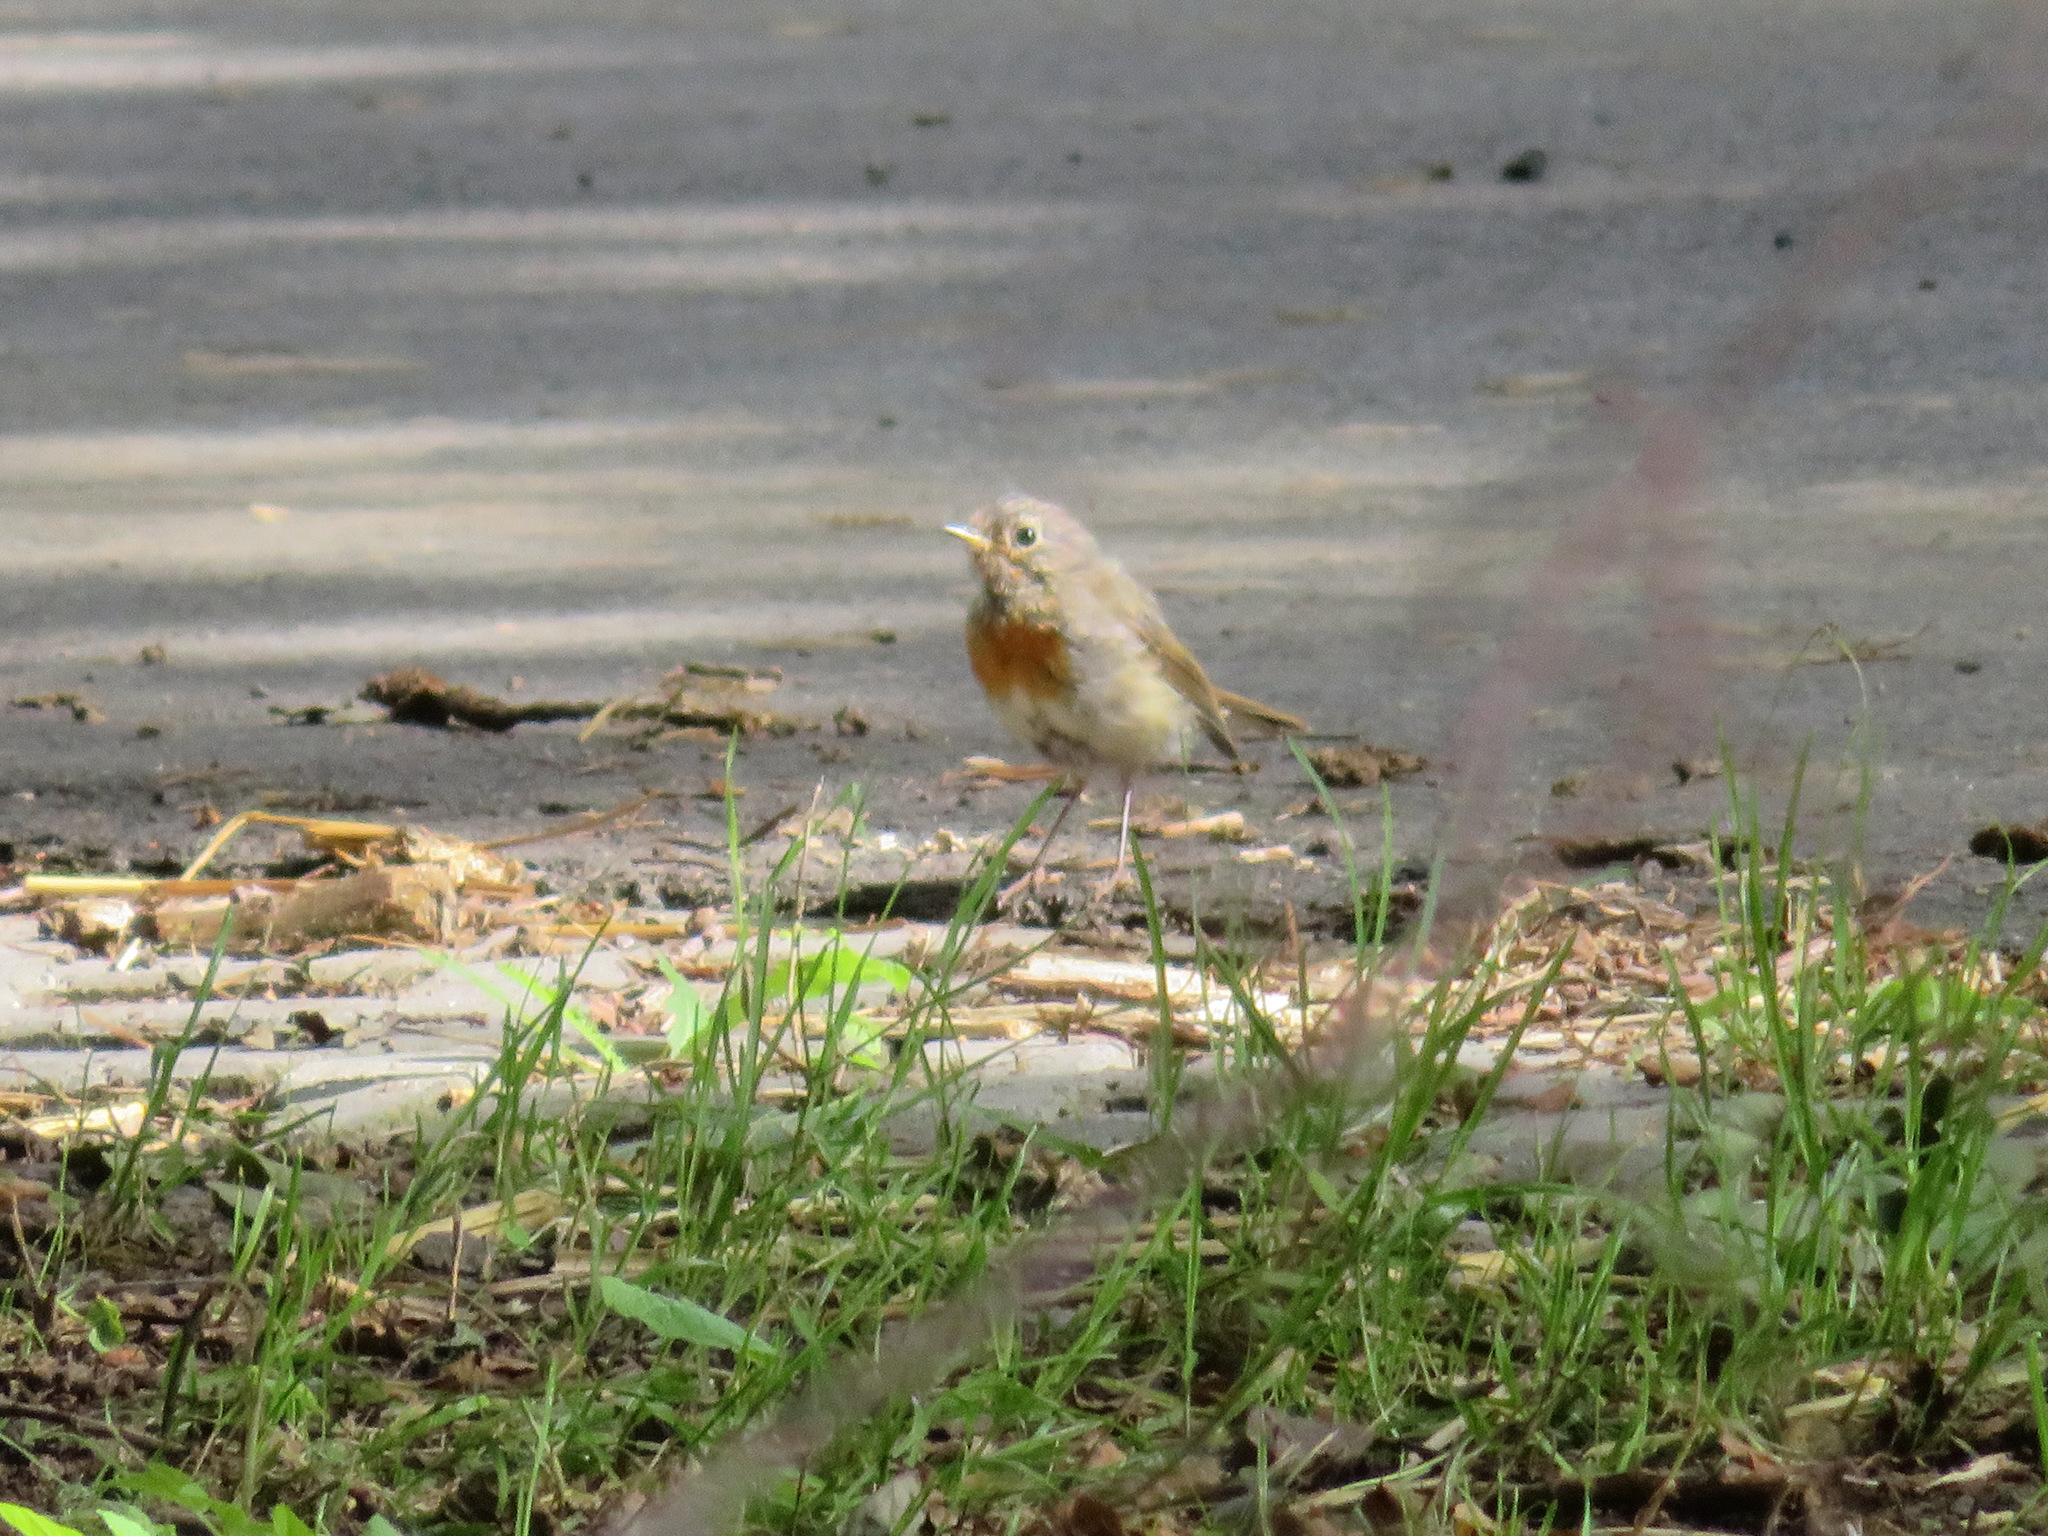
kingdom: Animalia
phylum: Chordata
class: Aves
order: Passeriformes
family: Muscicapidae
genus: Erithacus
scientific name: Erithacus rubecula
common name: European robin
